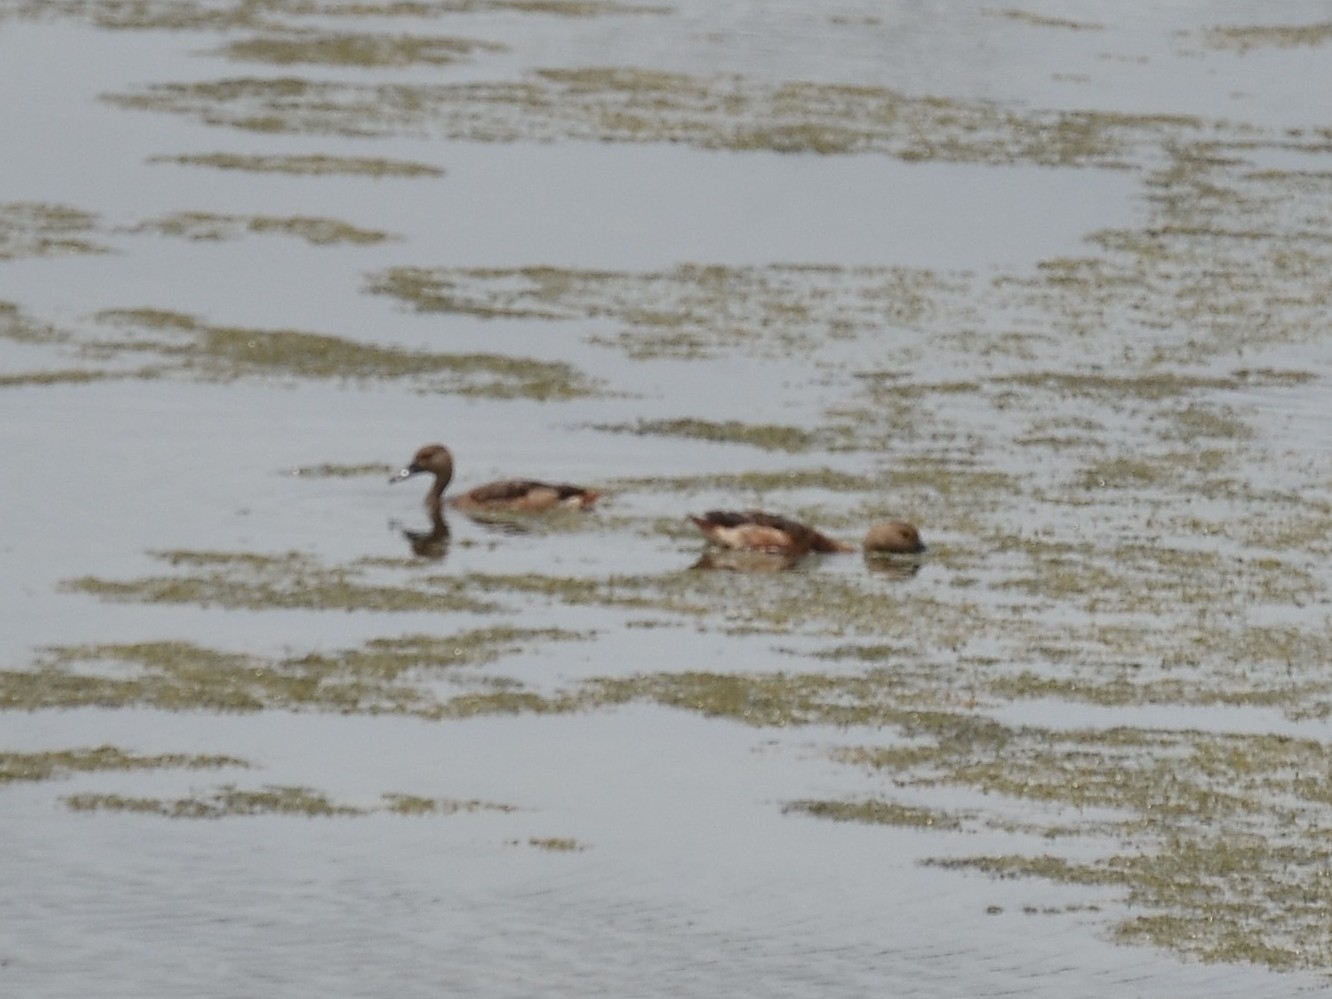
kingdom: Animalia
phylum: Chordata
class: Aves
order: Anseriformes
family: Anatidae
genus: Dendrocygna
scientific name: Dendrocygna javanica
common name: Lesser whistling-duck
